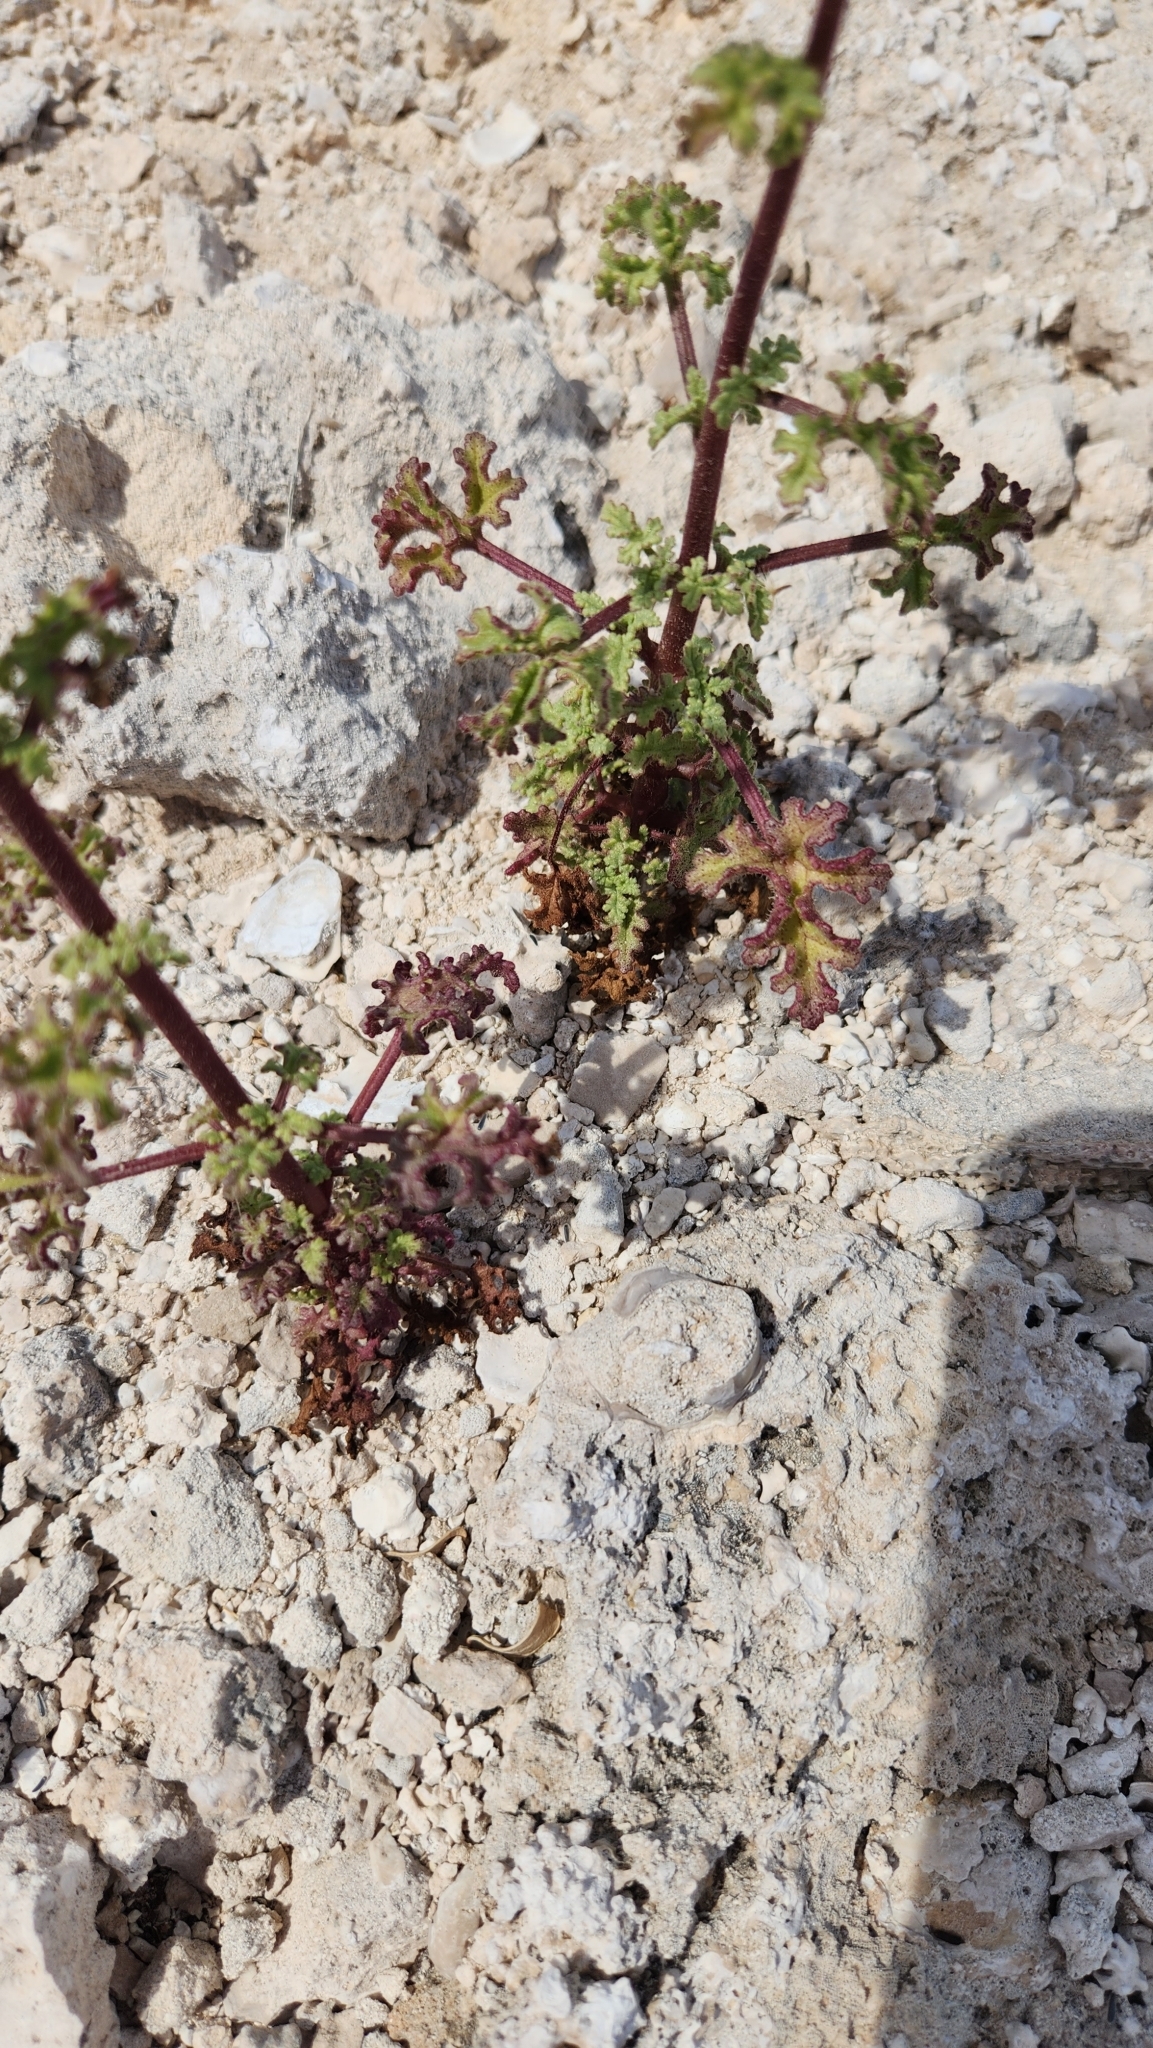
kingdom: Plantae
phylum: Tracheophyta
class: Magnoliopsida
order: Asterales
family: Asteraceae
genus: Perityle
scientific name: Perityle crassifolia
